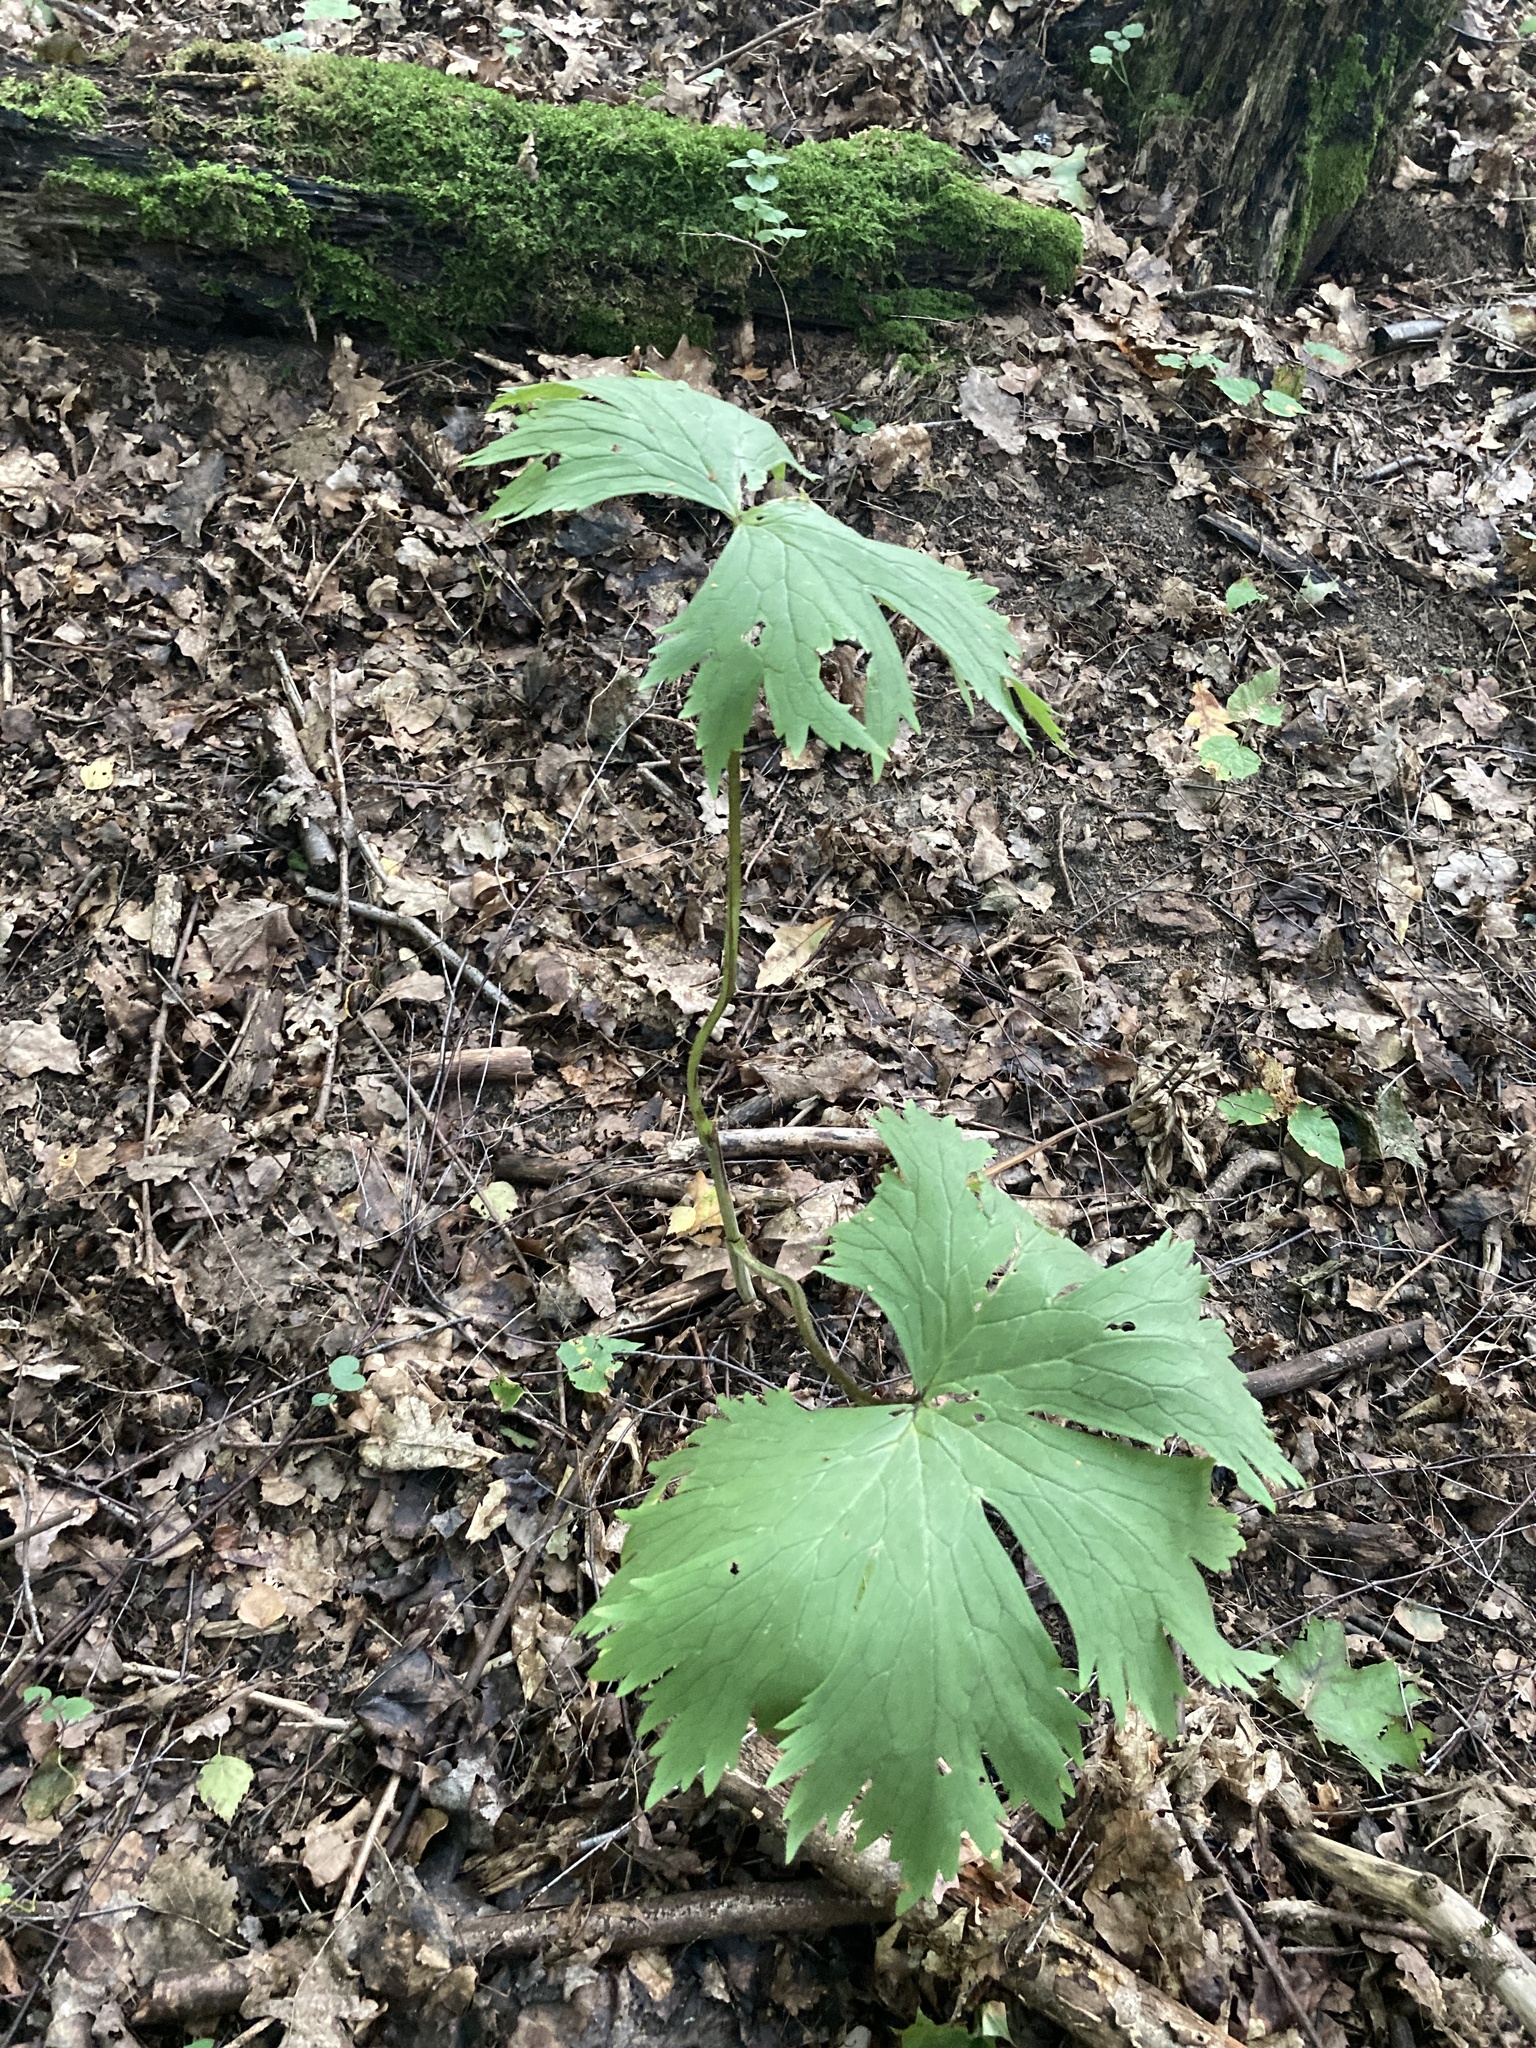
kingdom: Plantae
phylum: Tracheophyta
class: Magnoliopsida
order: Ranunculales
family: Ranunculaceae
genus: Aconitum
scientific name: Aconitum septentrionale
